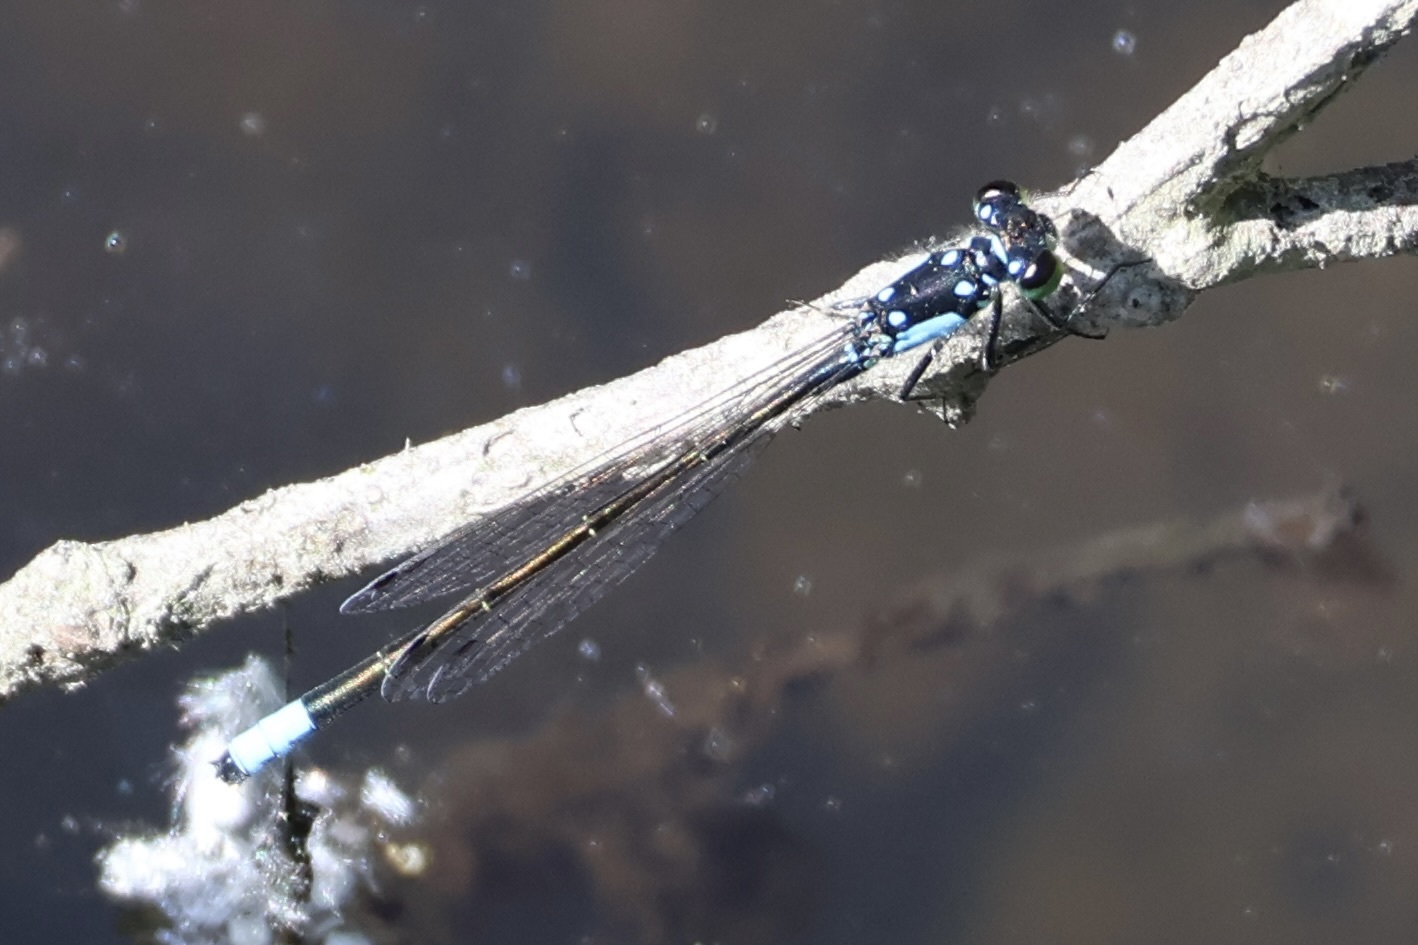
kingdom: Animalia
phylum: Arthropoda
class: Insecta
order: Odonata
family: Coenagrionidae
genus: Ischnura
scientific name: Ischnura cervula
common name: Pacific forktail
